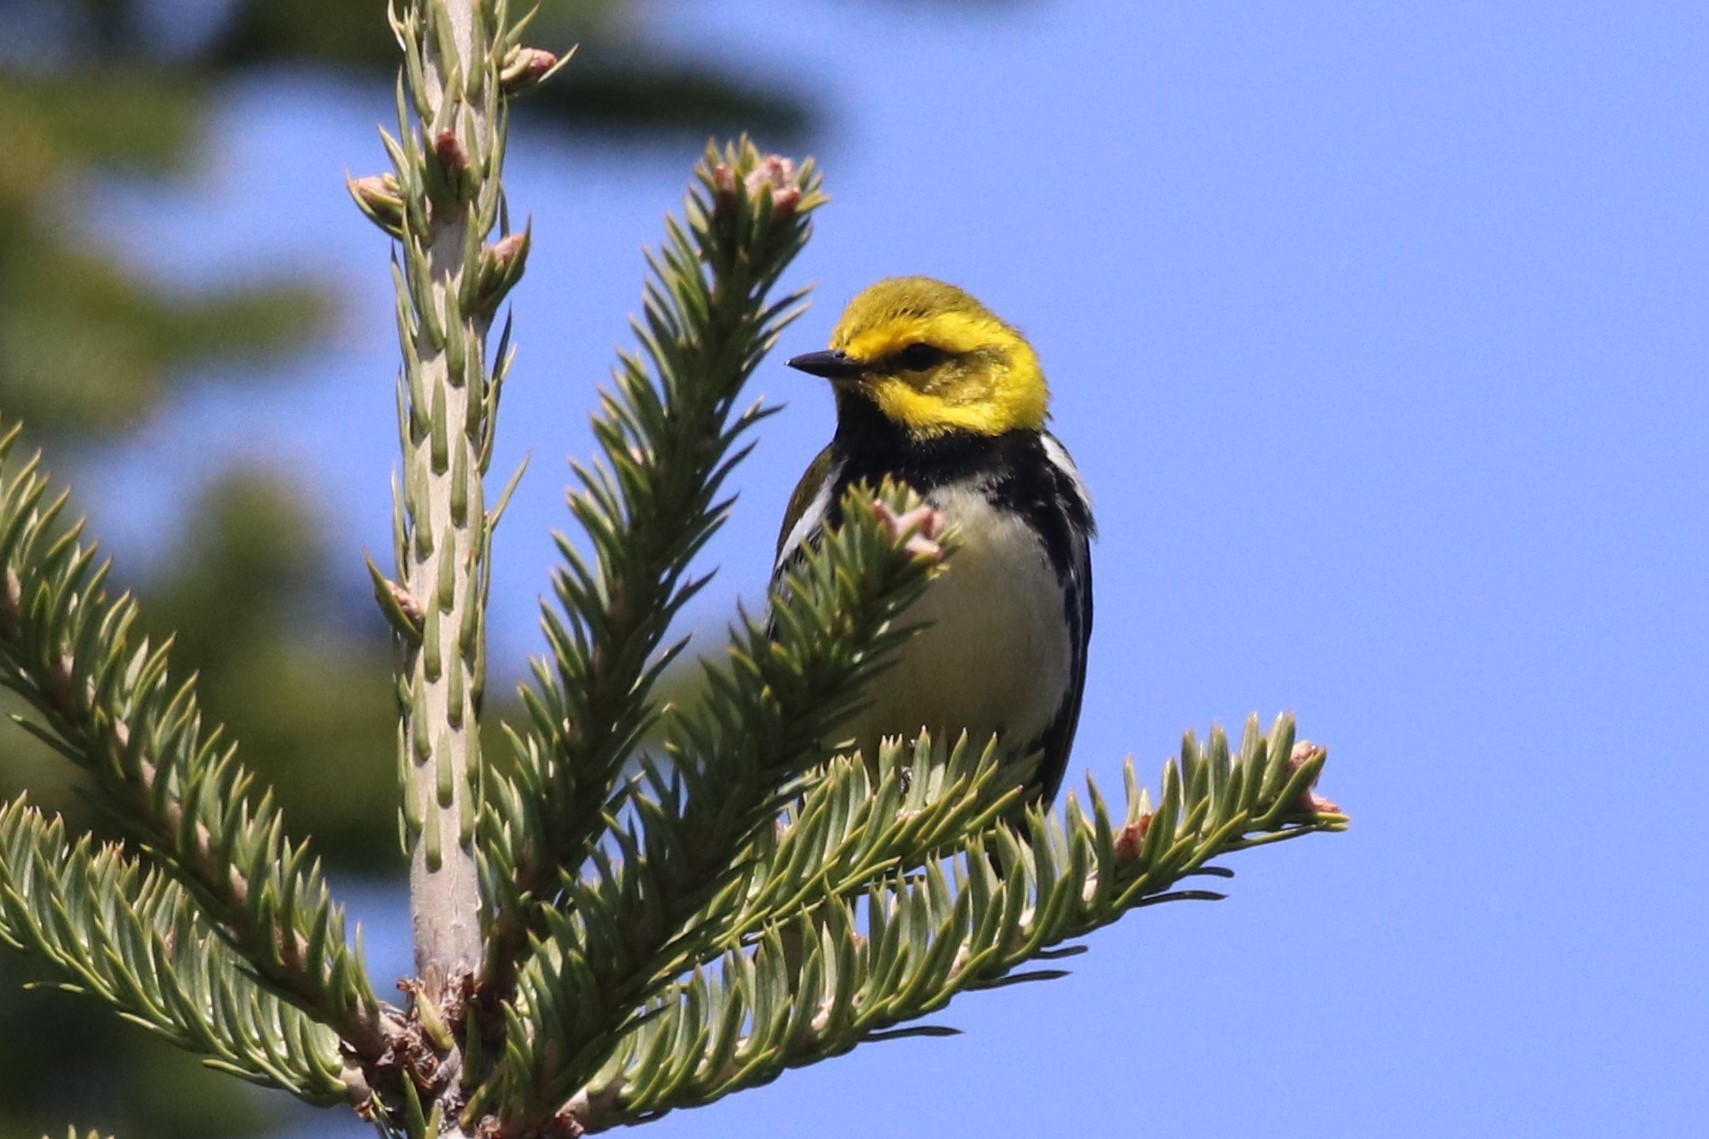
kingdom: Animalia
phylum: Chordata
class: Aves
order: Passeriformes
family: Parulidae
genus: Setophaga
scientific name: Setophaga virens
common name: Black-throated green warbler
